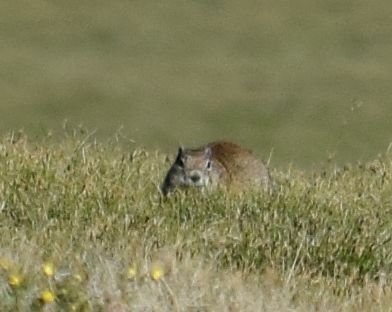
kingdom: Animalia
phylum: Chordata
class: Mammalia
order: Rodentia
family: Sciuridae
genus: Urocitellus
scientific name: Urocitellus beldingi
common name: Belding's ground squirrel
